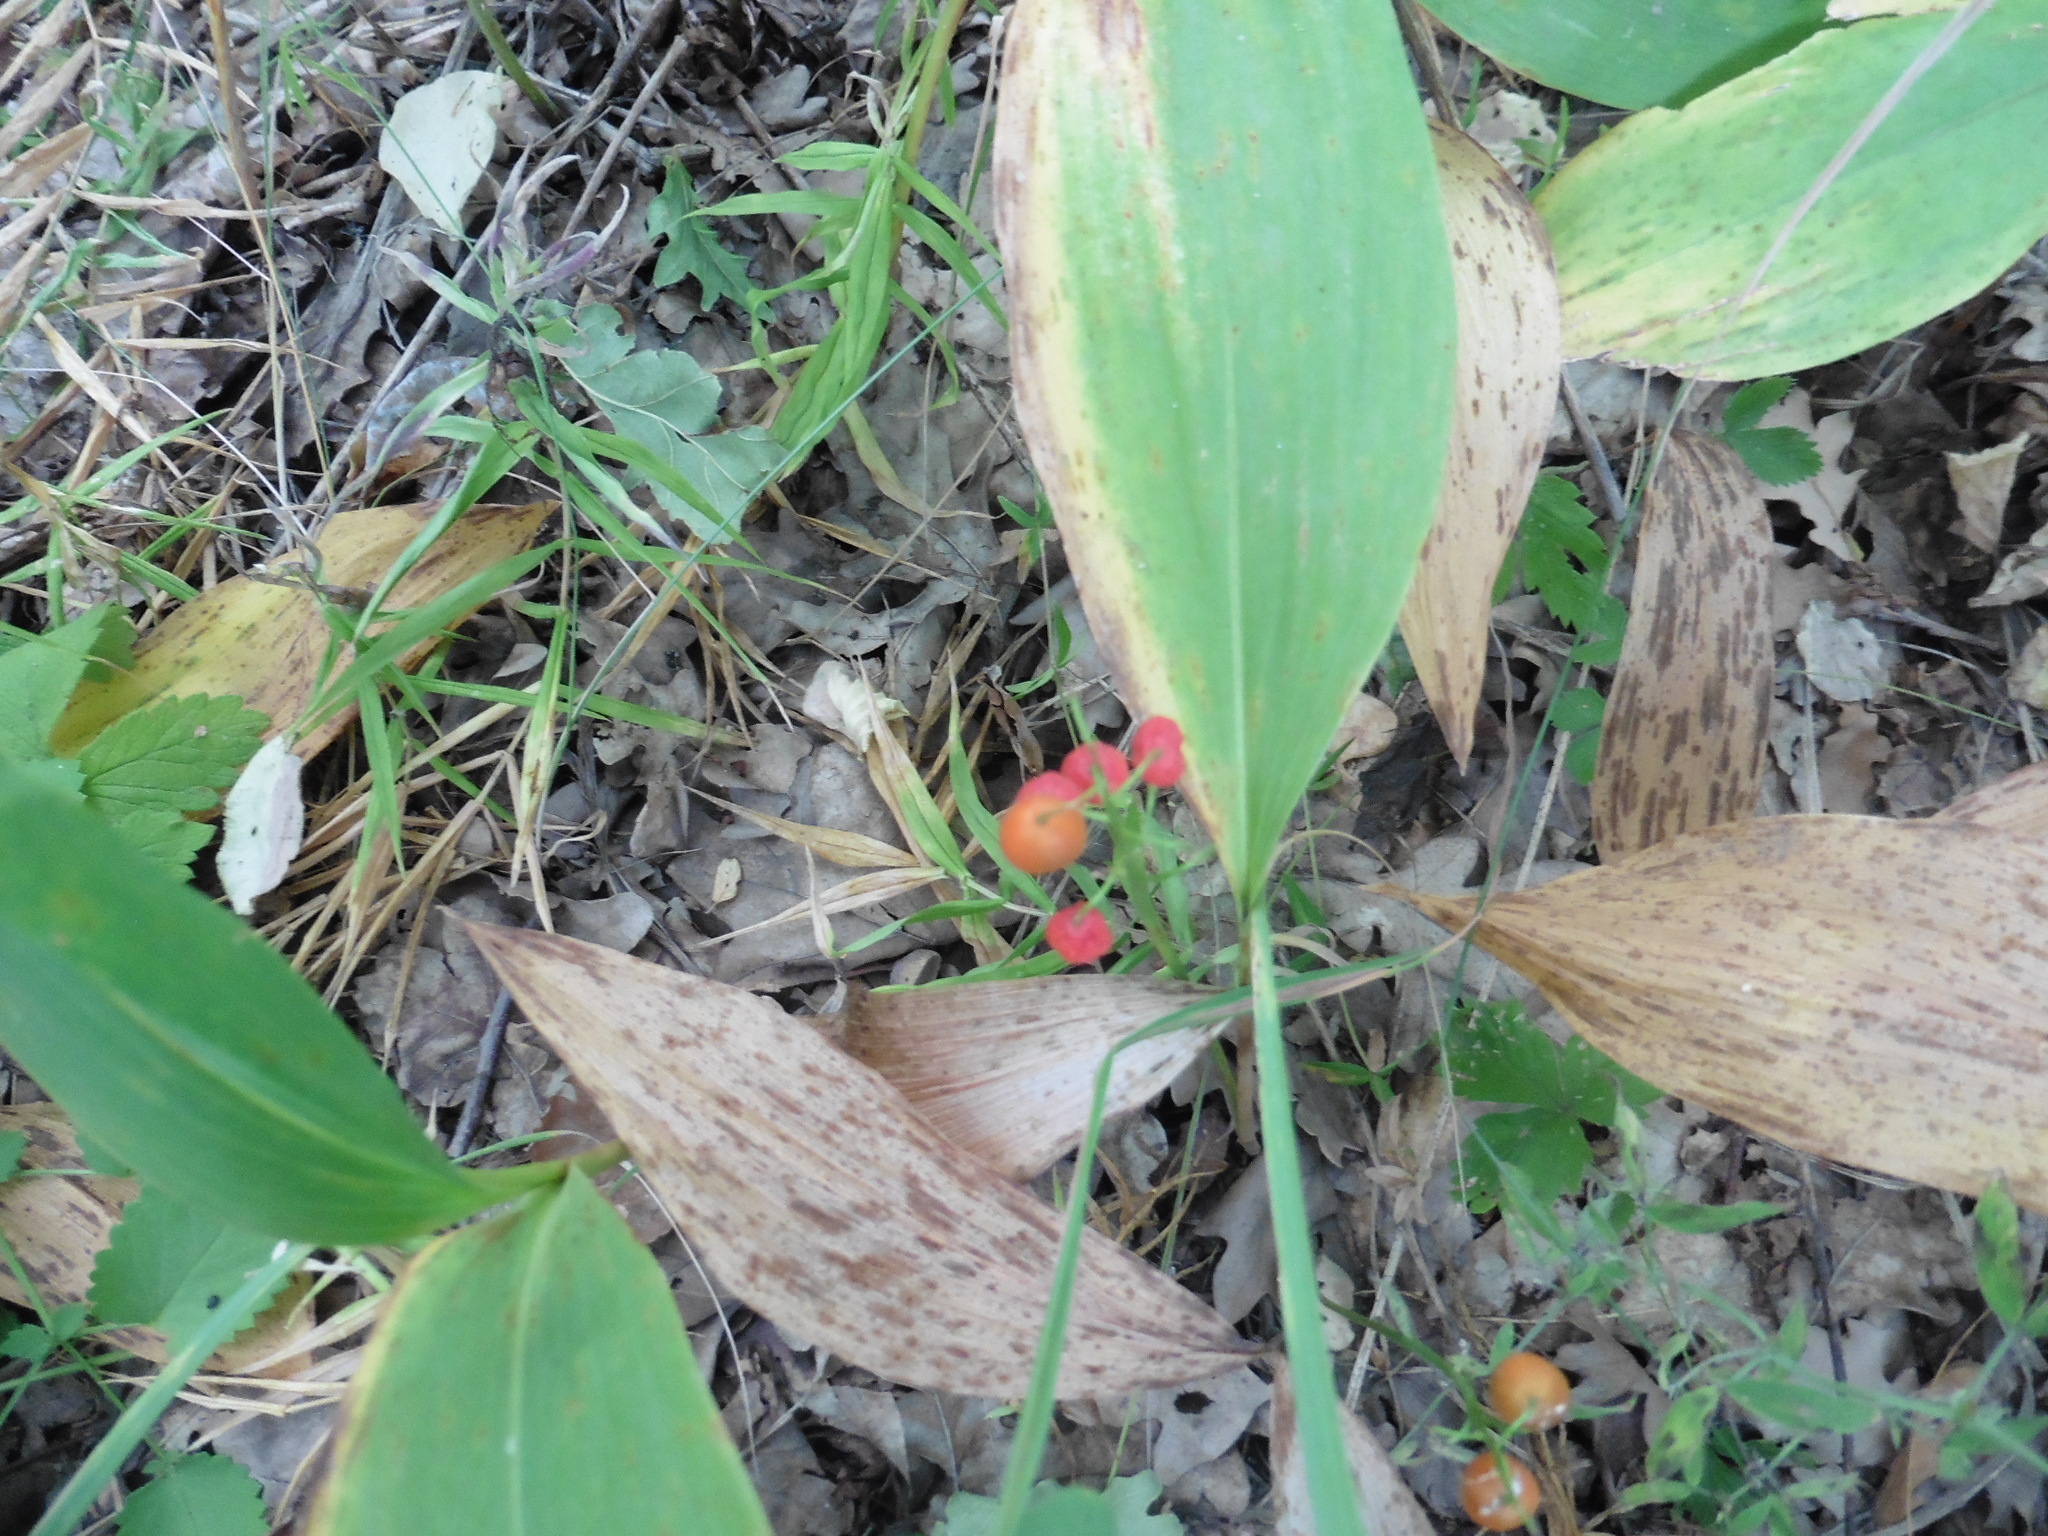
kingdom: Plantae
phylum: Tracheophyta
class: Liliopsida
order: Asparagales
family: Asparagaceae
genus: Convallaria
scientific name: Convallaria majalis
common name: Lily-of-the-valley
